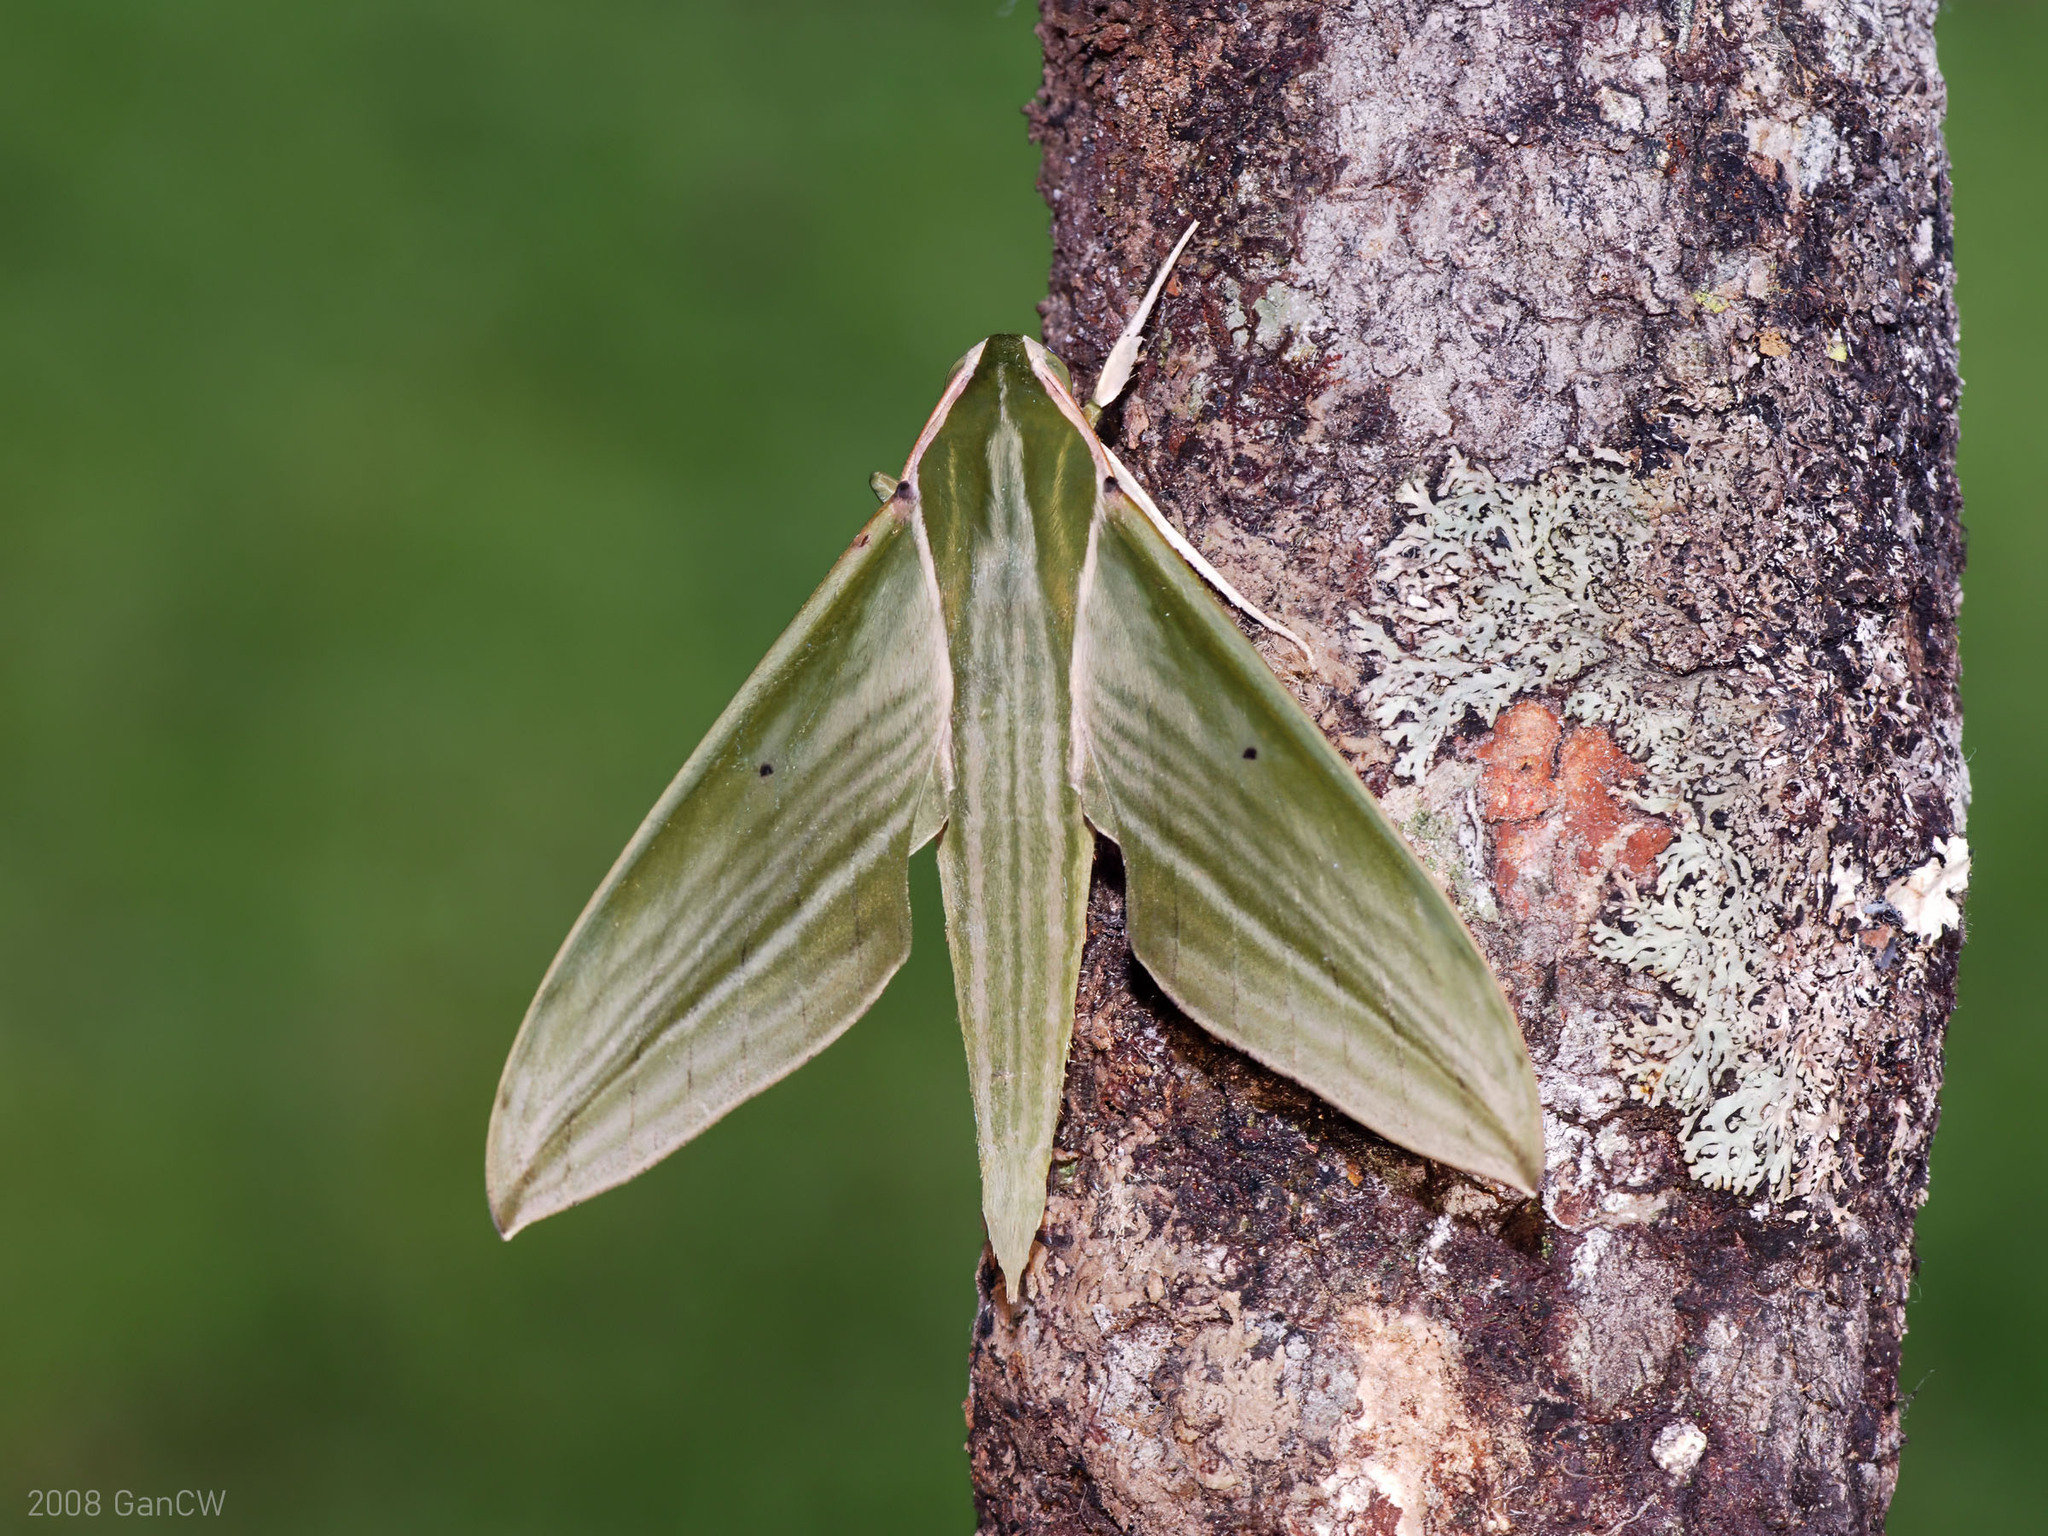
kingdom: Animalia
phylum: Arthropoda
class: Insecta
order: Lepidoptera
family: Sphingidae
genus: Cechetra
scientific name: Cechetra subangustata
